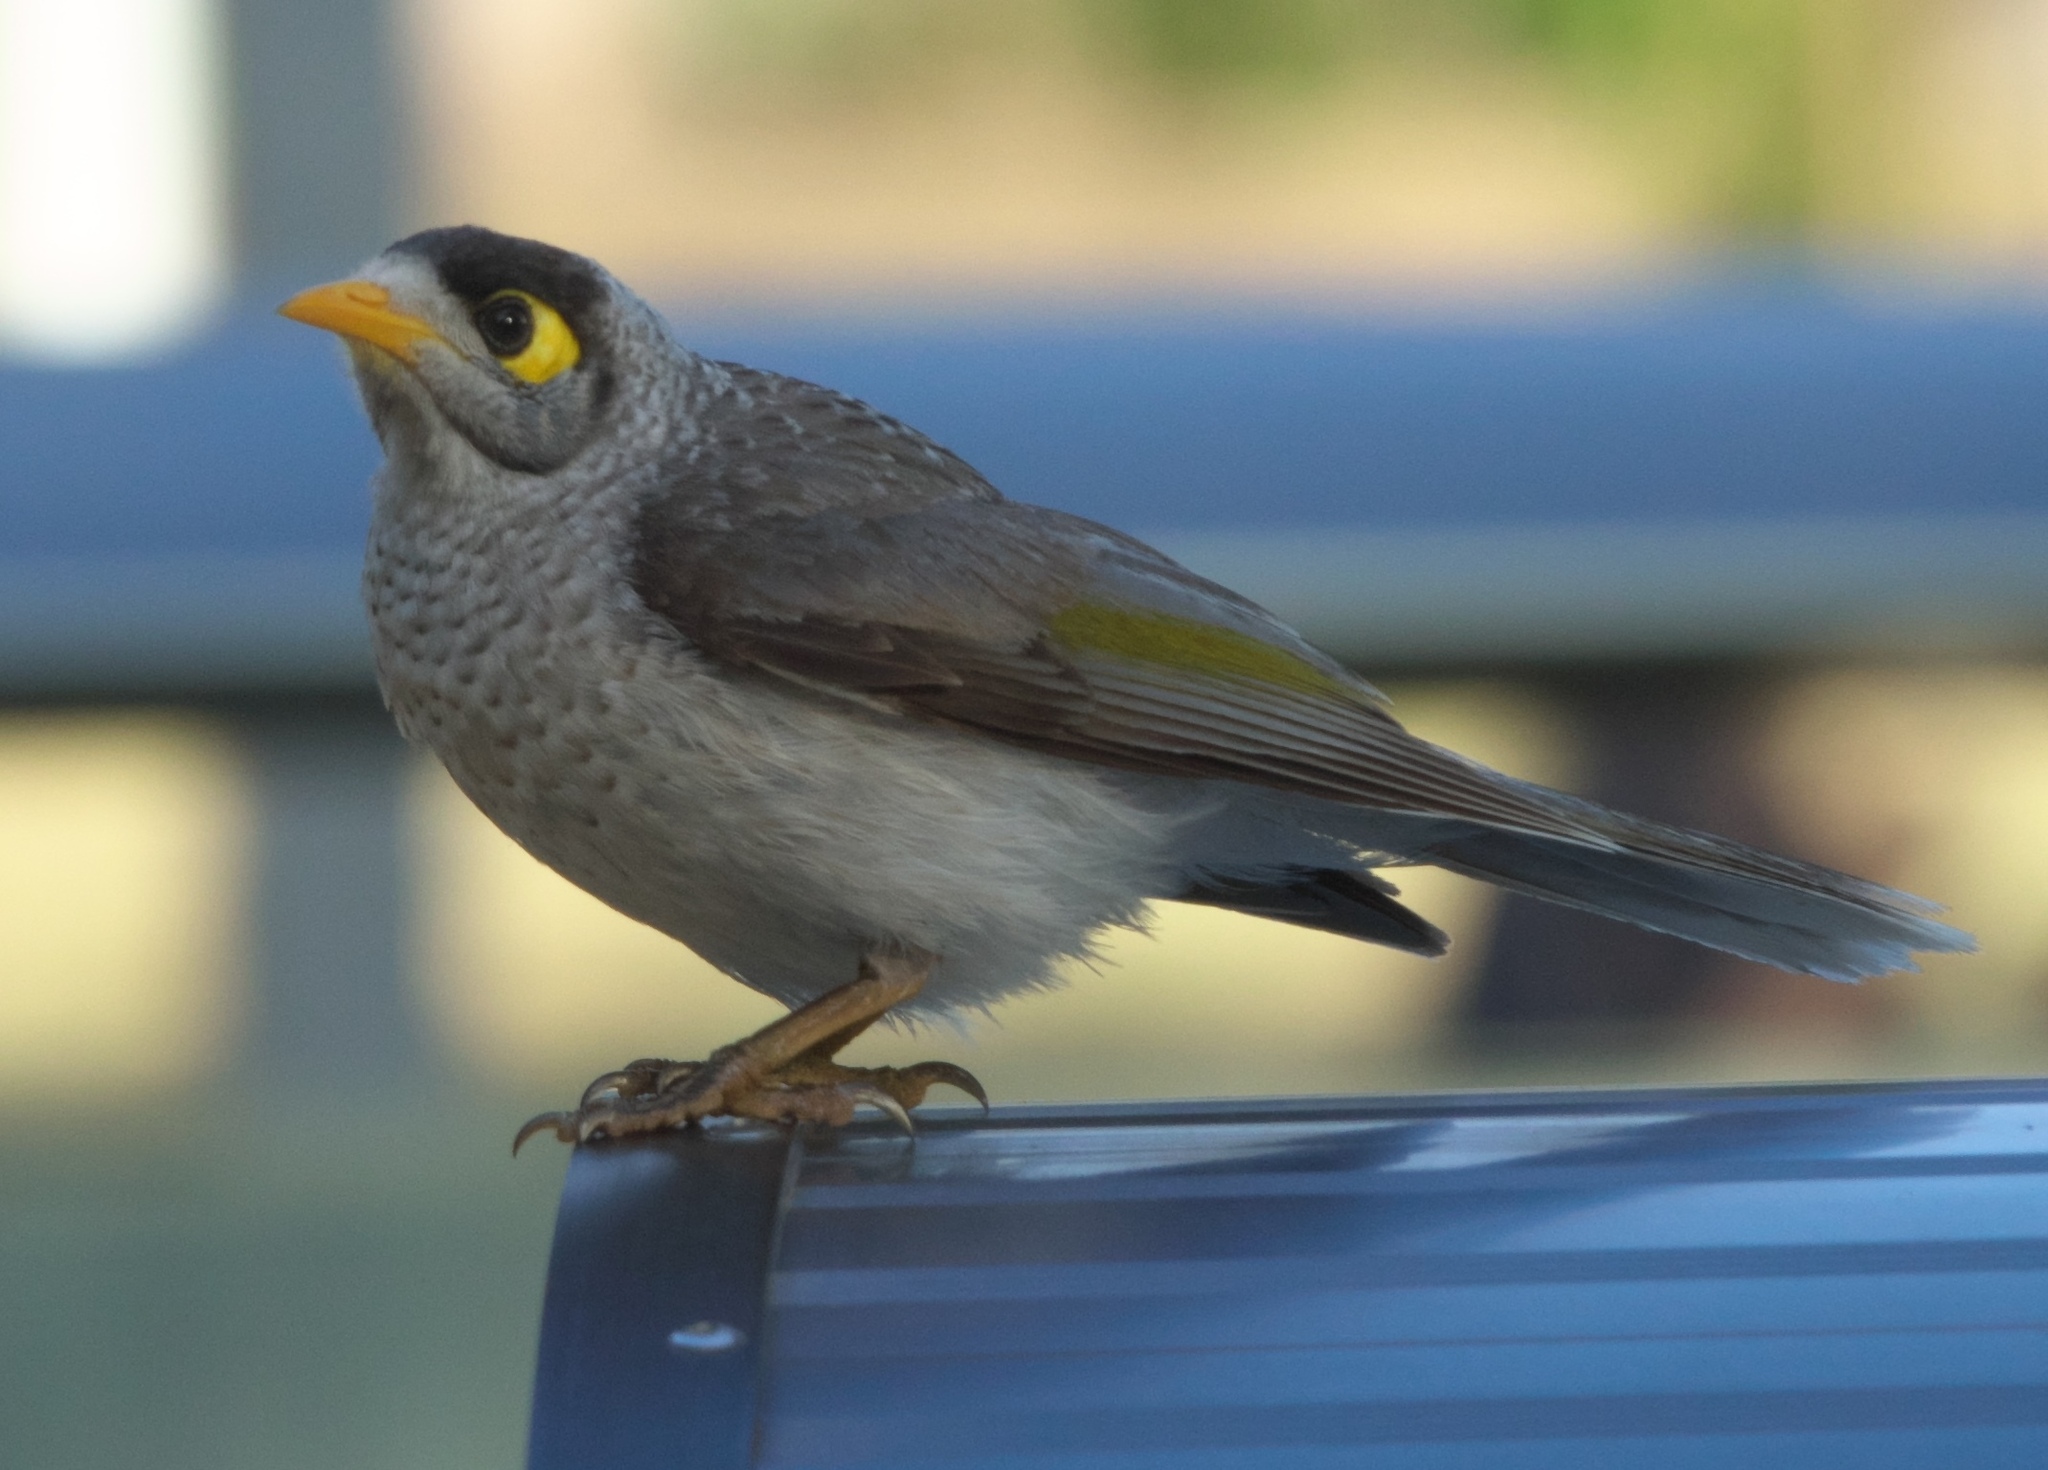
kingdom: Animalia
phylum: Chordata
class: Aves
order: Passeriformes
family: Meliphagidae
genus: Manorina
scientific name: Manorina melanocephala
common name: Noisy miner
